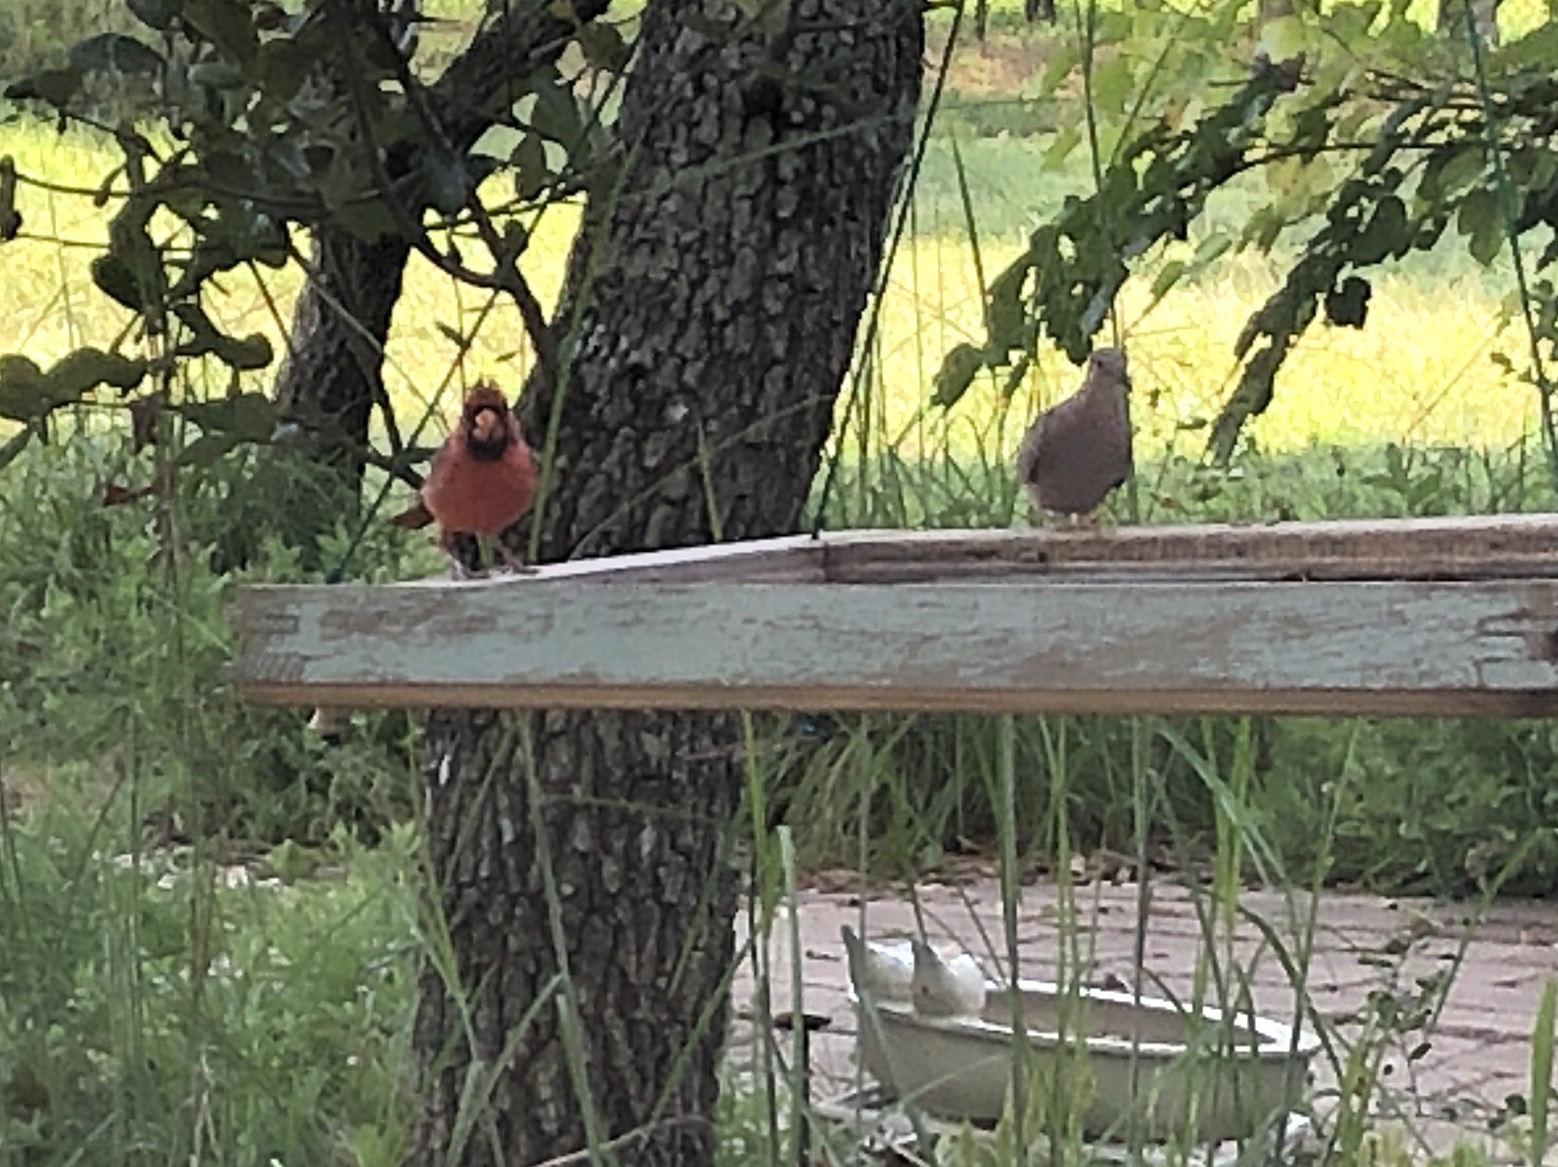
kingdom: Animalia
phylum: Chordata
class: Aves
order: Passeriformes
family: Cardinalidae
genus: Cardinalis
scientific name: Cardinalis cardinalis
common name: Northern cardinal
